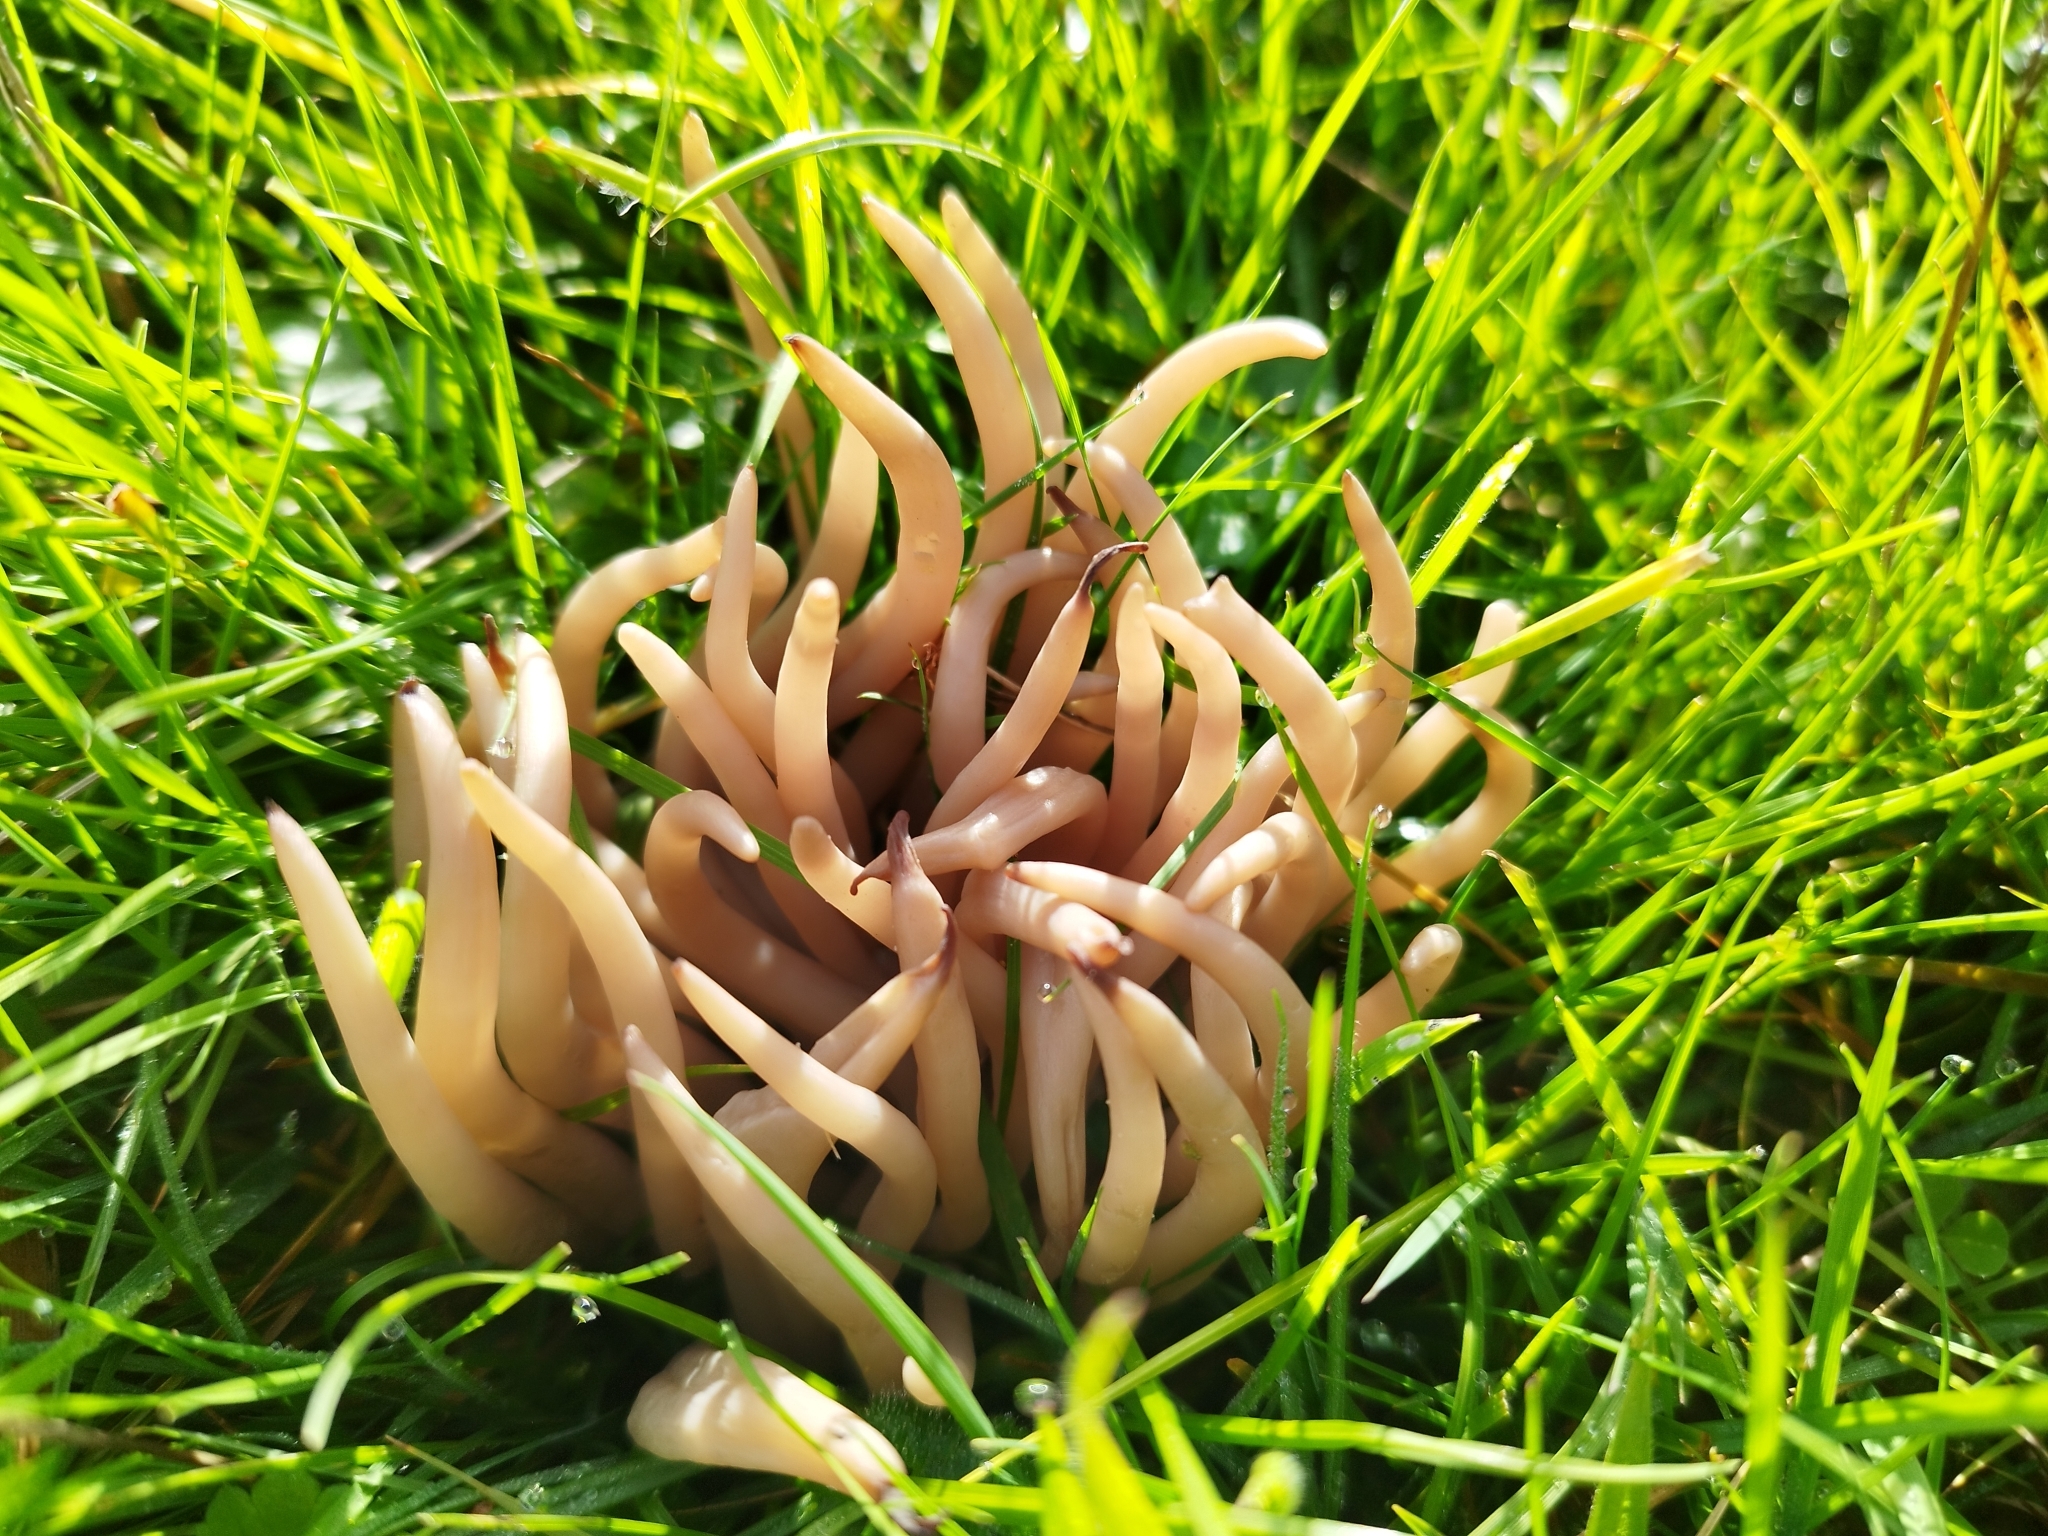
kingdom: Fungi
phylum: Basidiomycota
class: Agaricomycetes
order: Agaricales
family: Clavariaceae
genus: Clavaria
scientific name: Clavaria fumosa
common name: Smoky spindles
